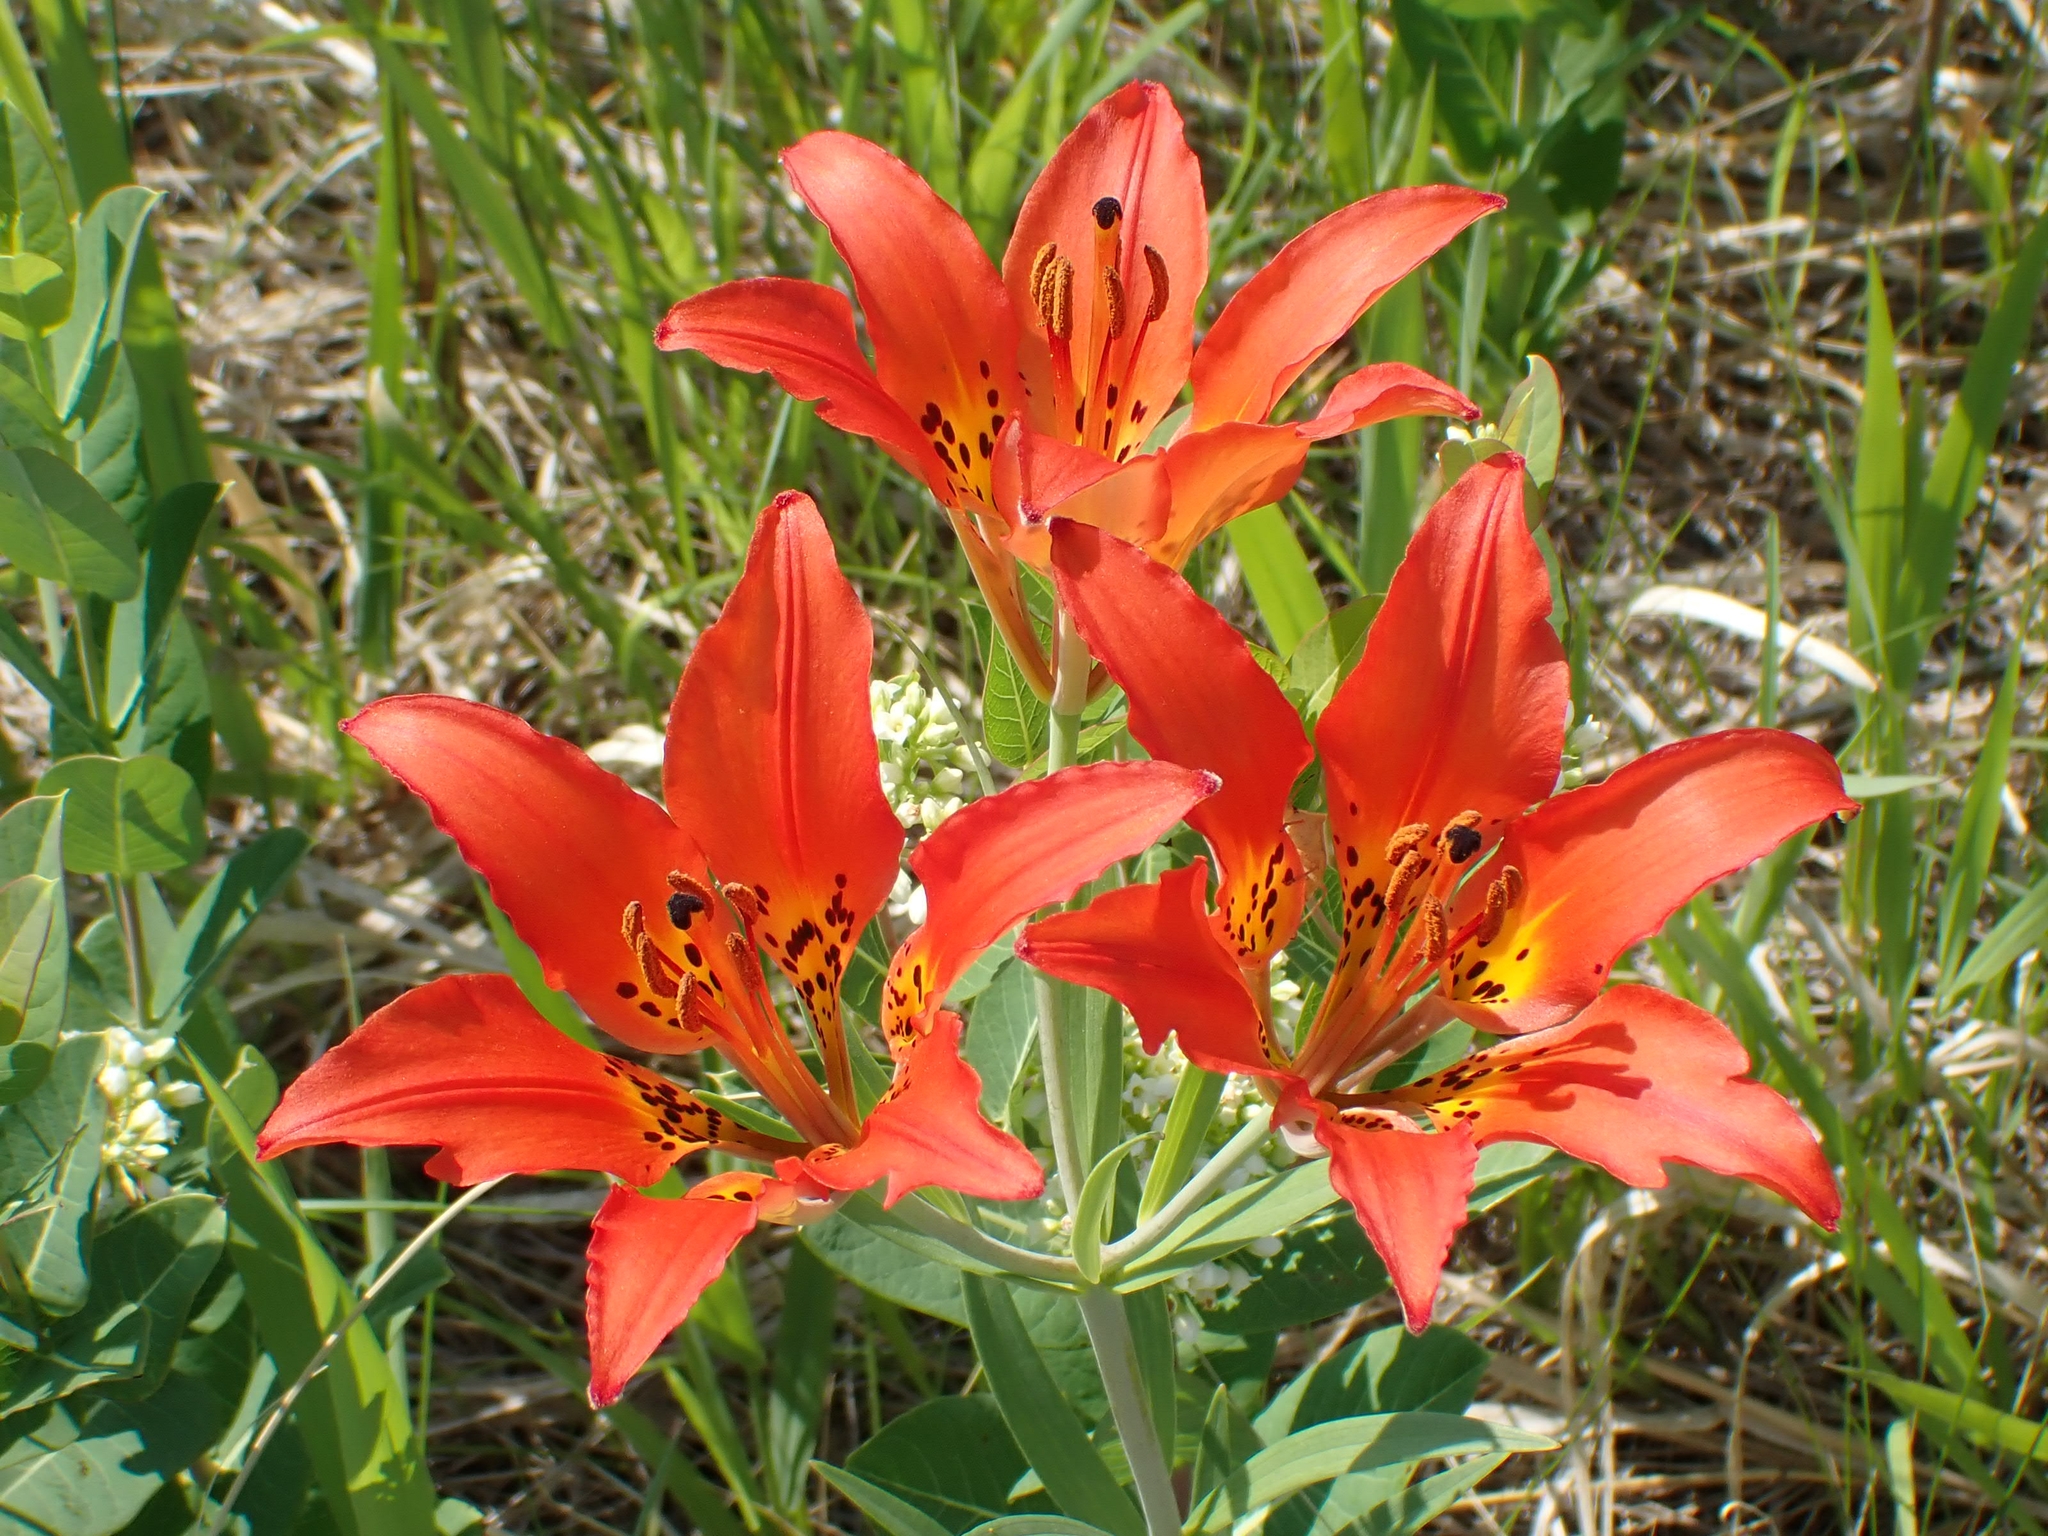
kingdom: Plantae
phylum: Tracheophyta
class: Liliopsida
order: Liliales
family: Liliaceae
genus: Lilium
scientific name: Lilium philadelphicum
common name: Red lily
